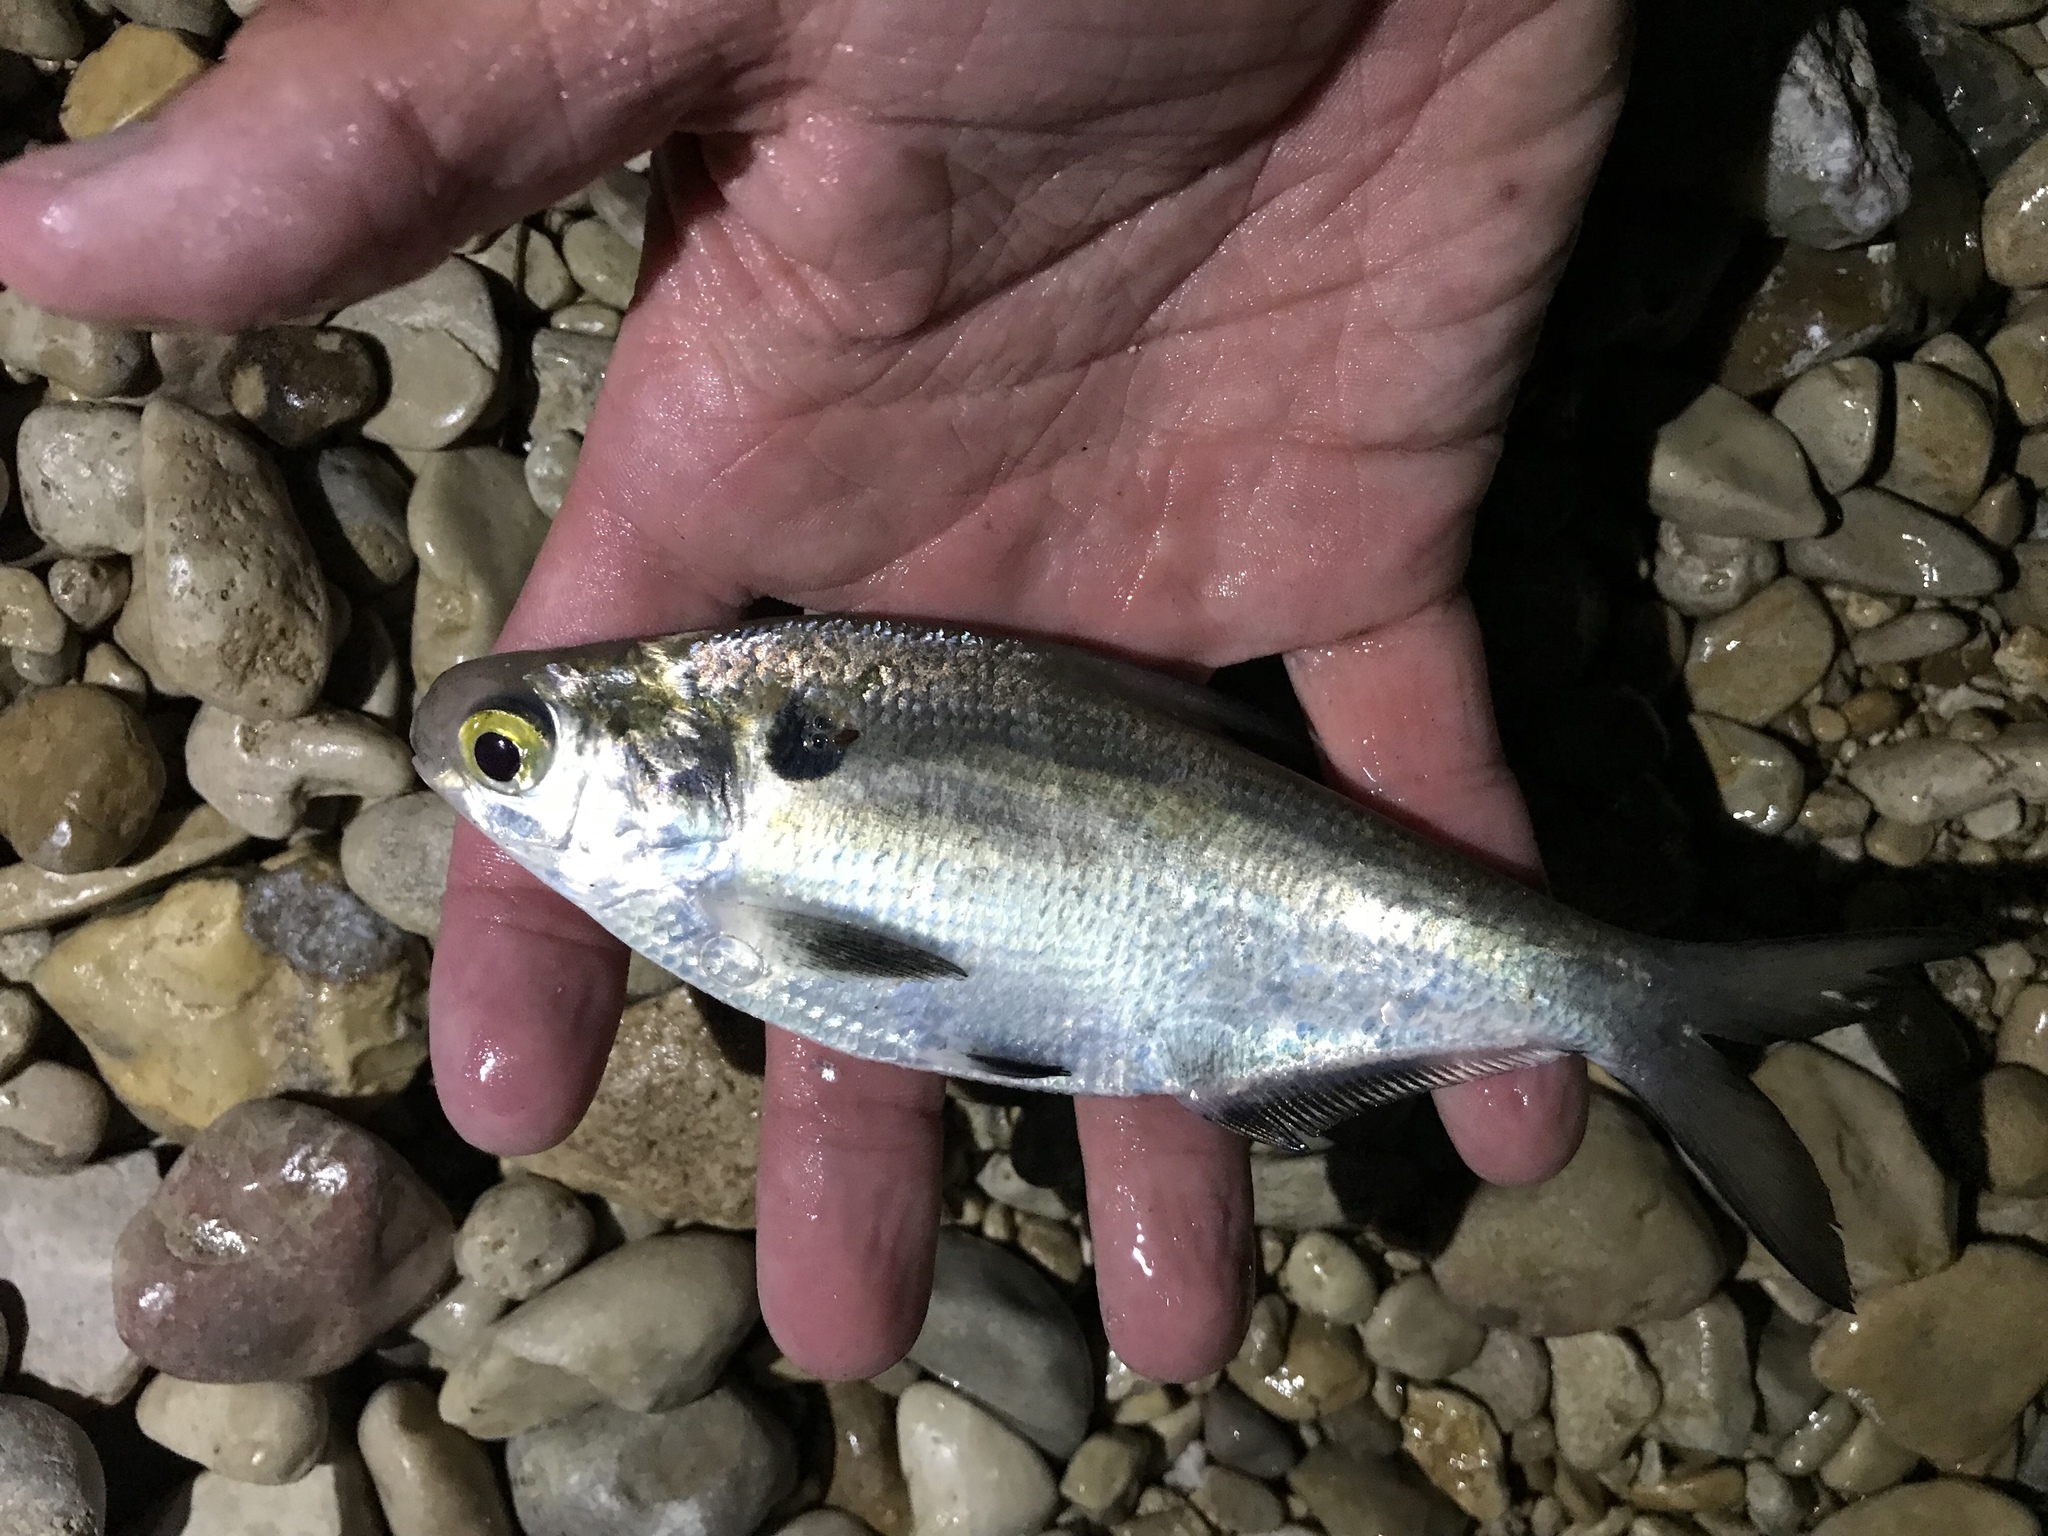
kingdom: Animalia
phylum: Chordata
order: Clupeiformes
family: Clupeidae
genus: Dorosoma
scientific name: Dorosoma cepedianum
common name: Gizzard shad
